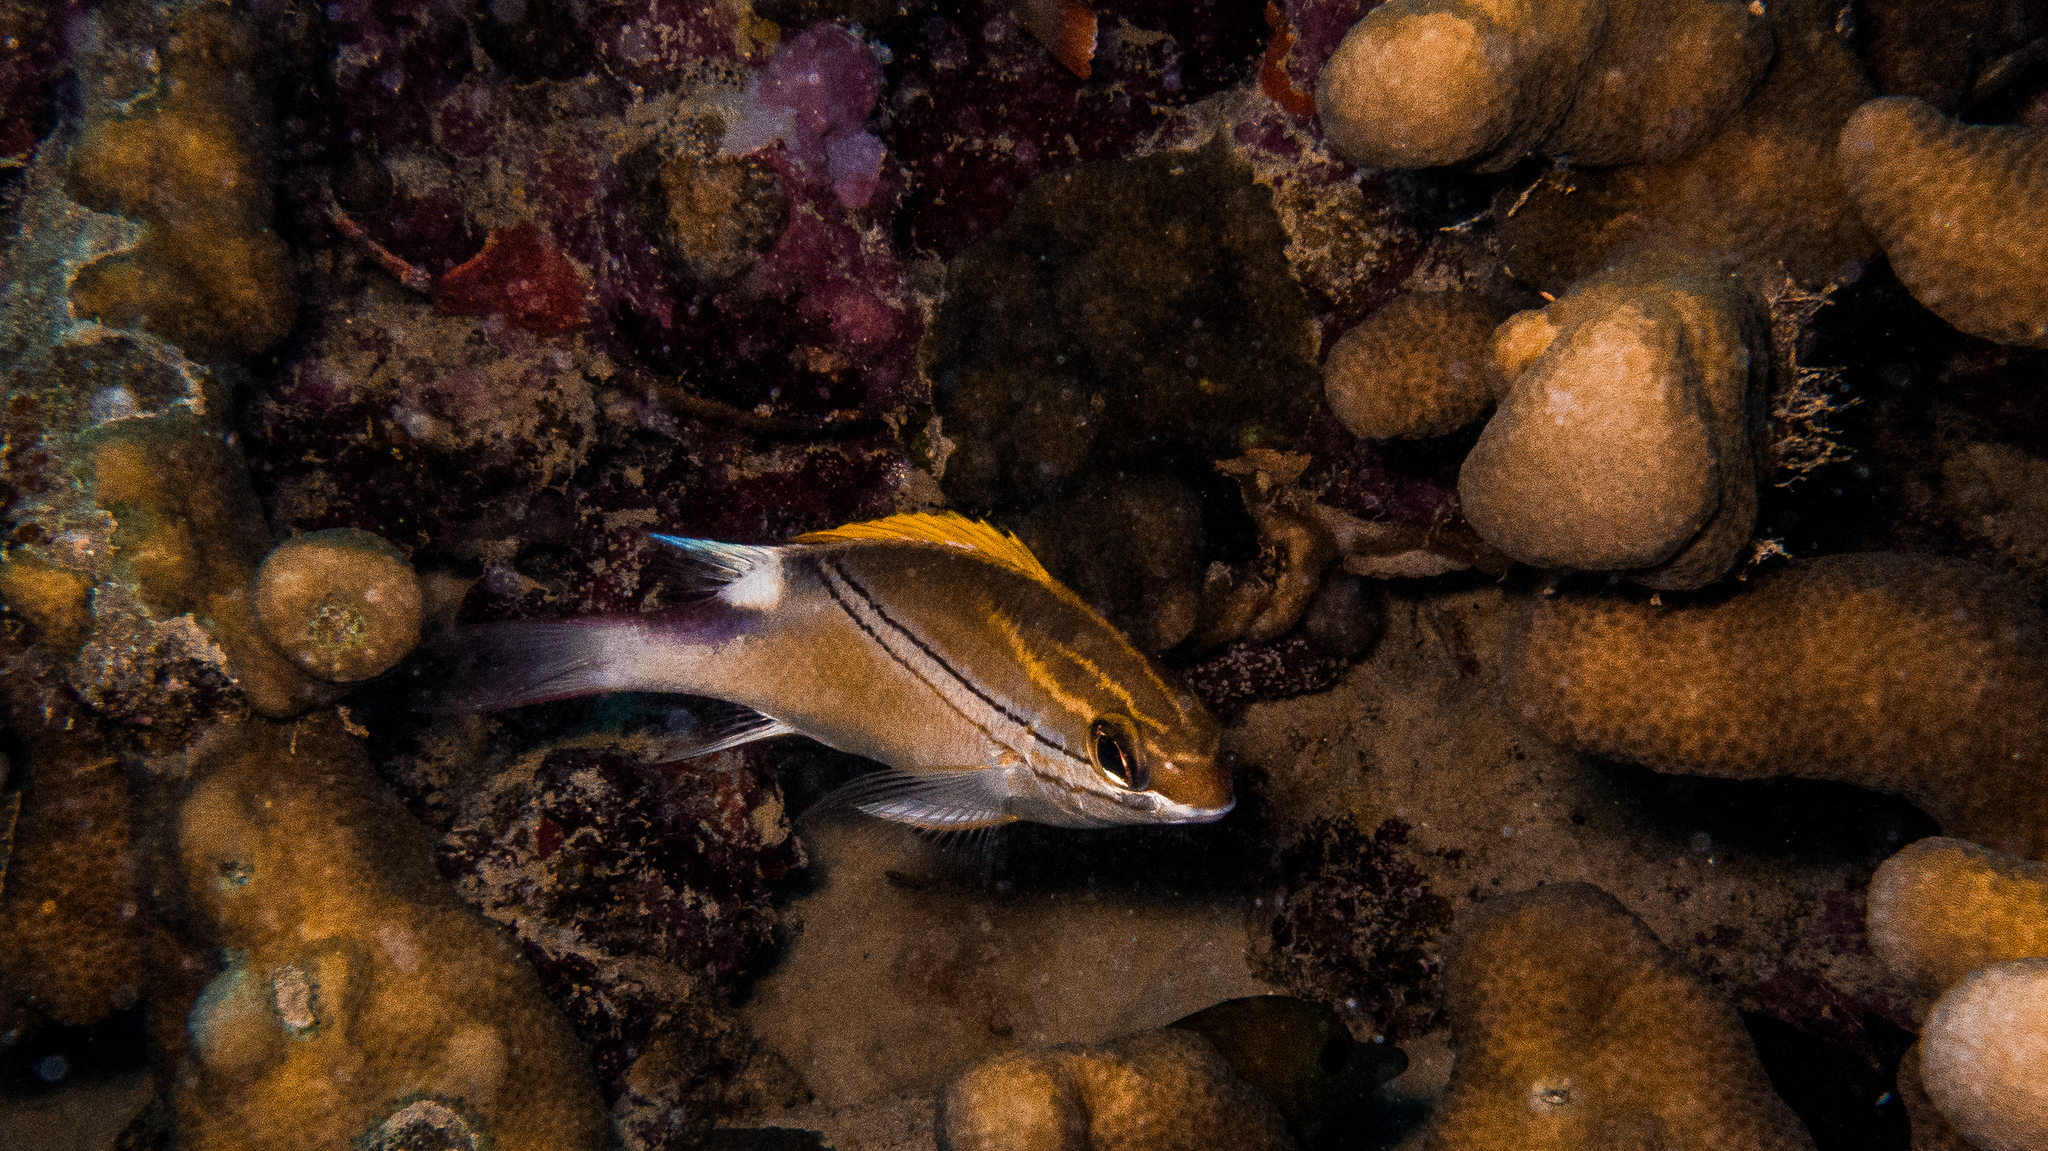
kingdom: Animalia
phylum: Chordata
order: Perciformes
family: Nemipteridae
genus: Scolopsis
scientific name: Scolopsis bilineata
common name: Two-lined monocle bream
